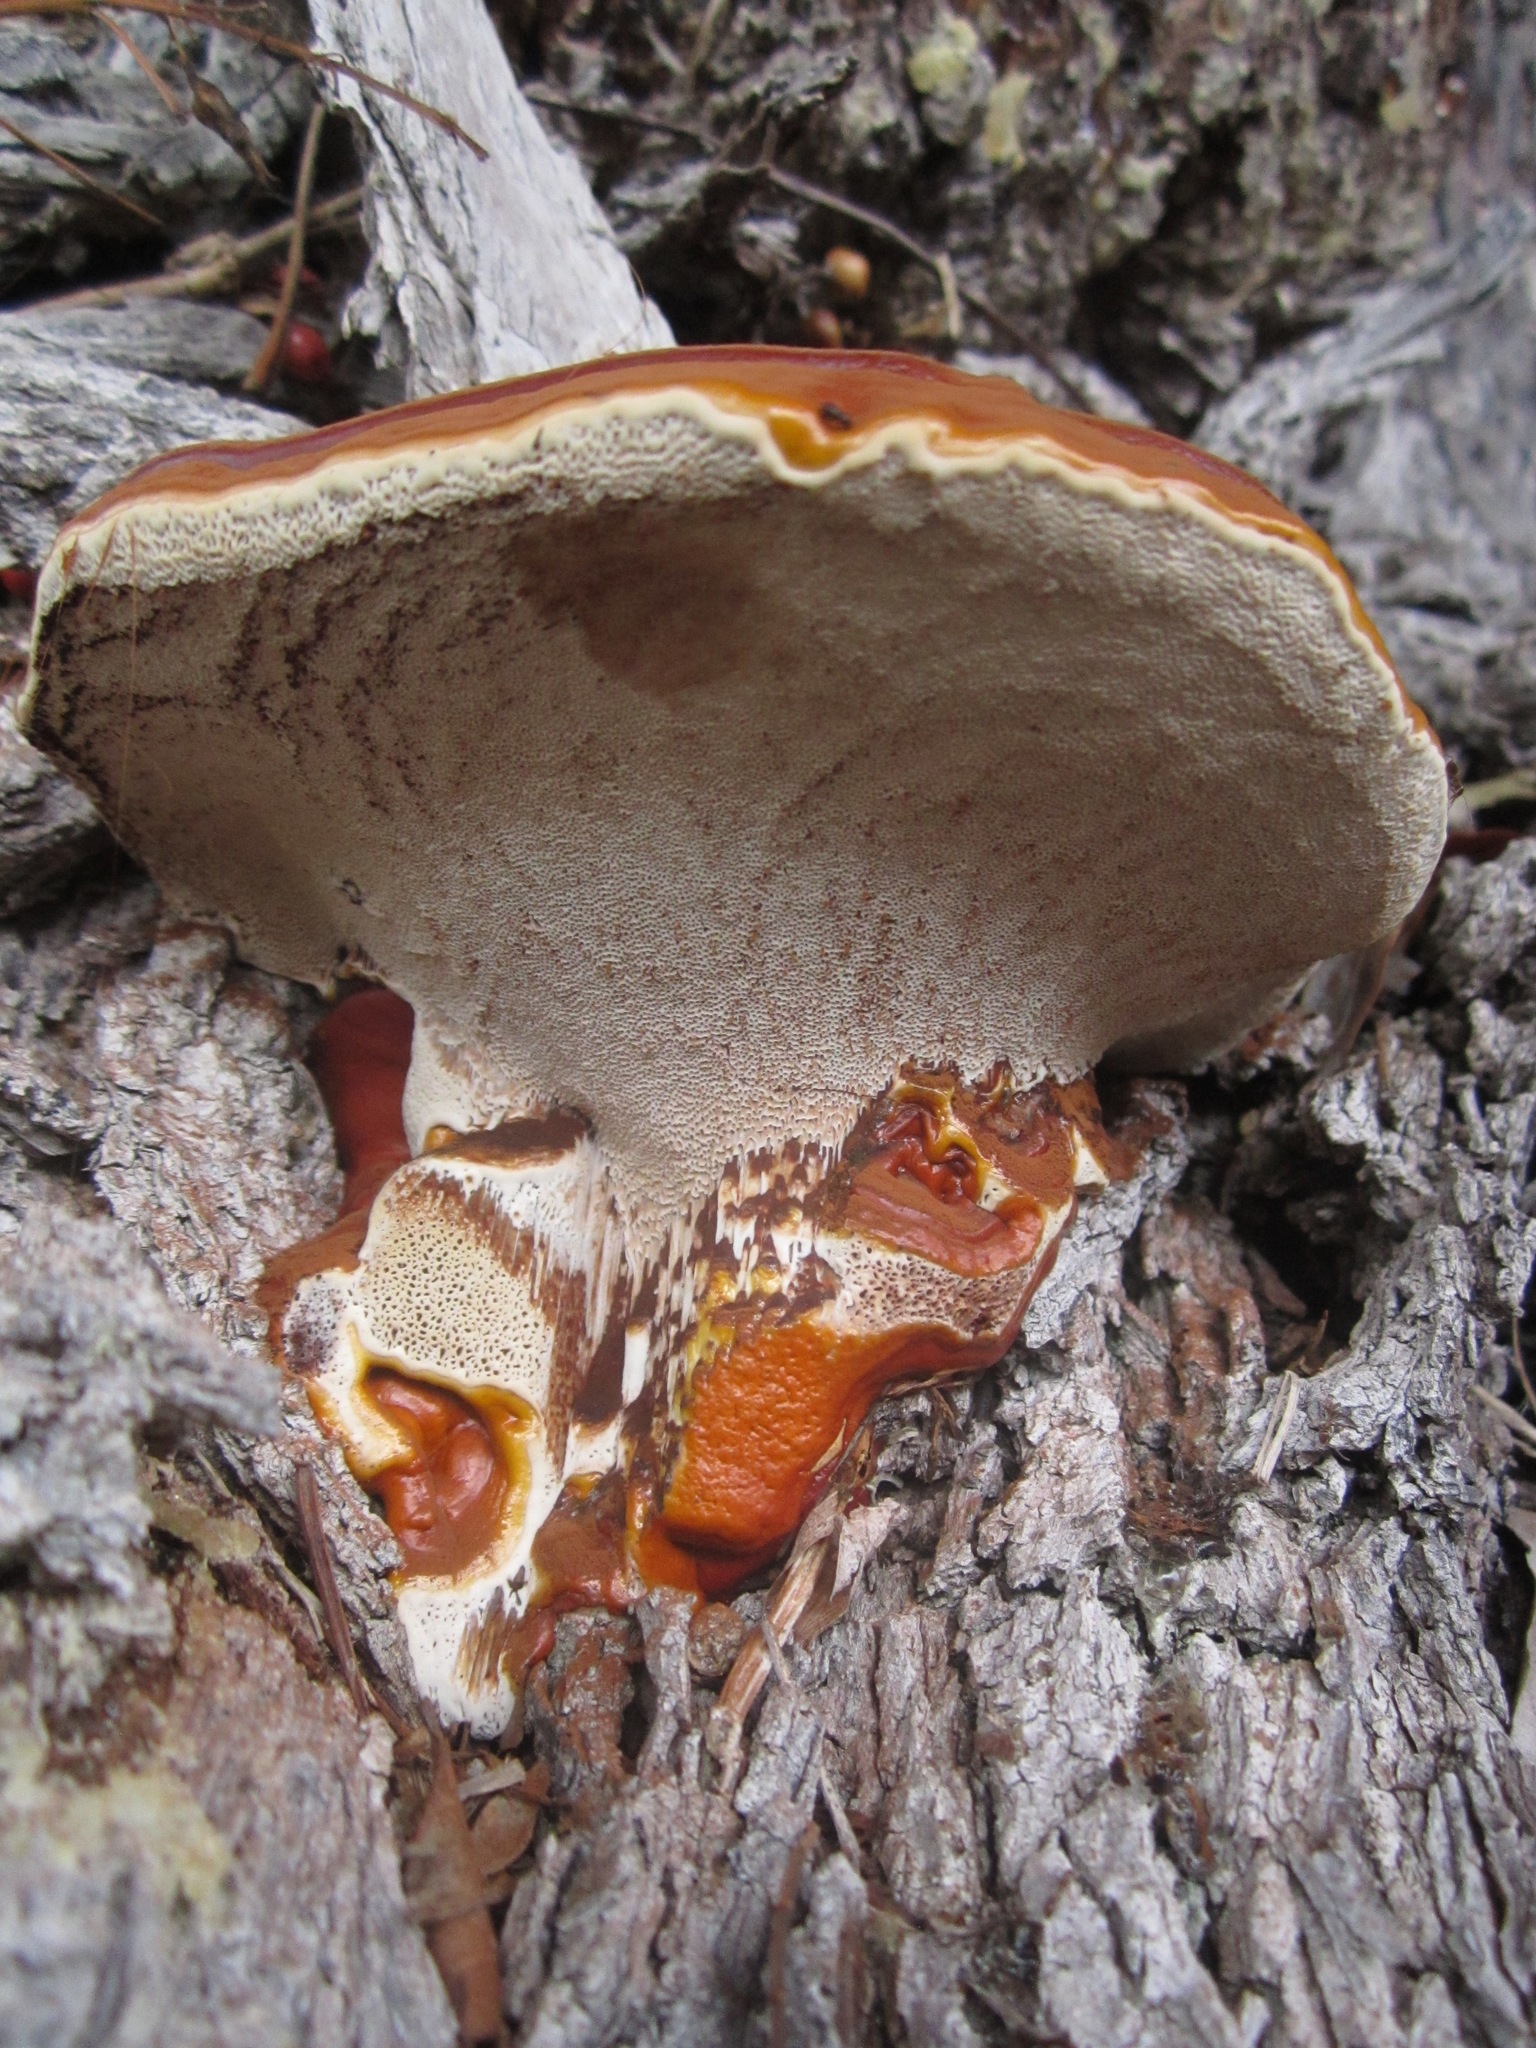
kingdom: Fungi
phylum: Basidiomycota
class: Agaricomycetes
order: Polyporales
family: Polyporaceae
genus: Ganoderma
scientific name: Ganoderma polychromum
